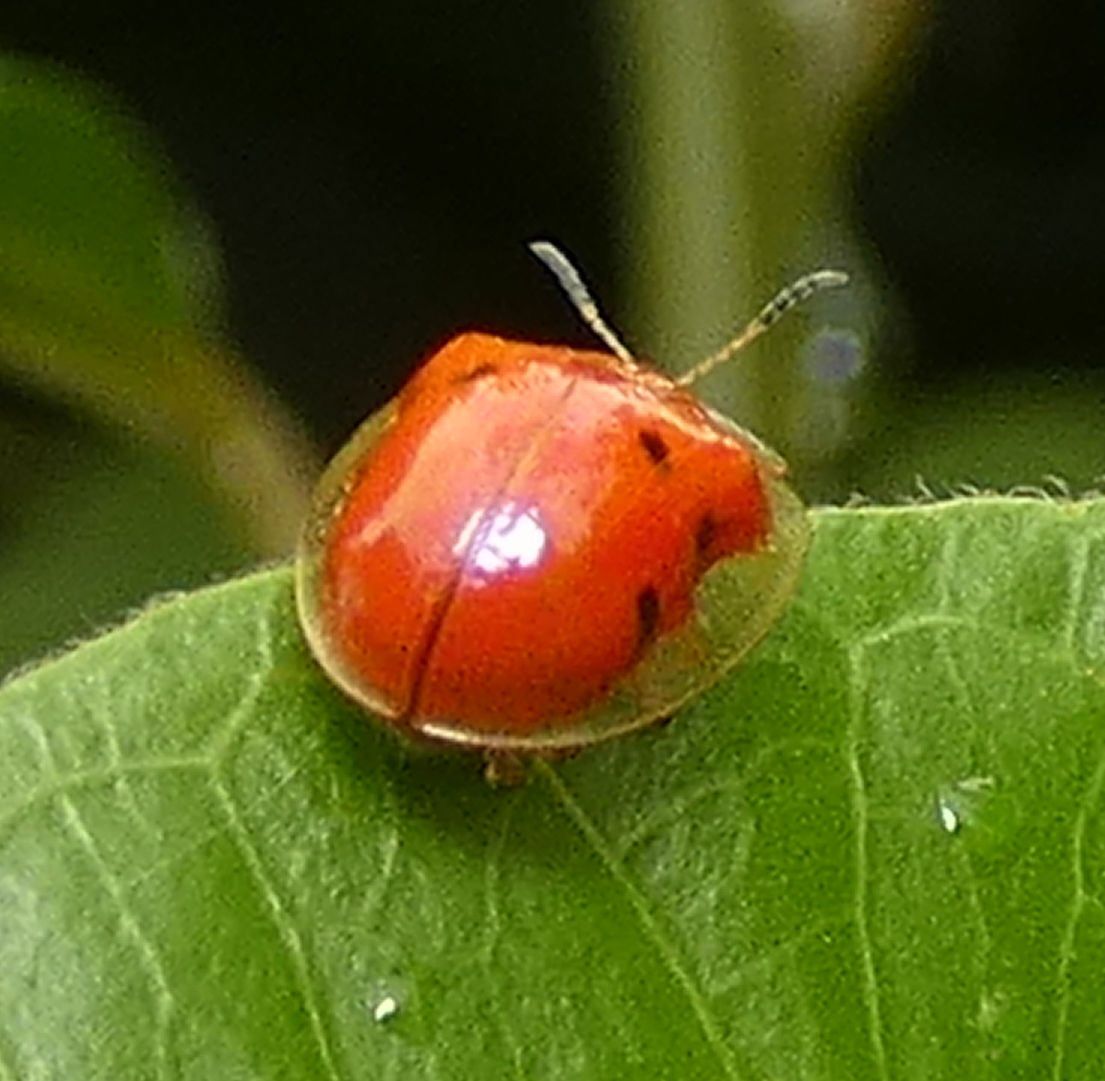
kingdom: Animalia
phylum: Arthropoda
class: Insecta
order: Coleoptera
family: Chrysomelidae
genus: Charidotella
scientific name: Charidotella sexpunctata
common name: Golden tortoise beetle
